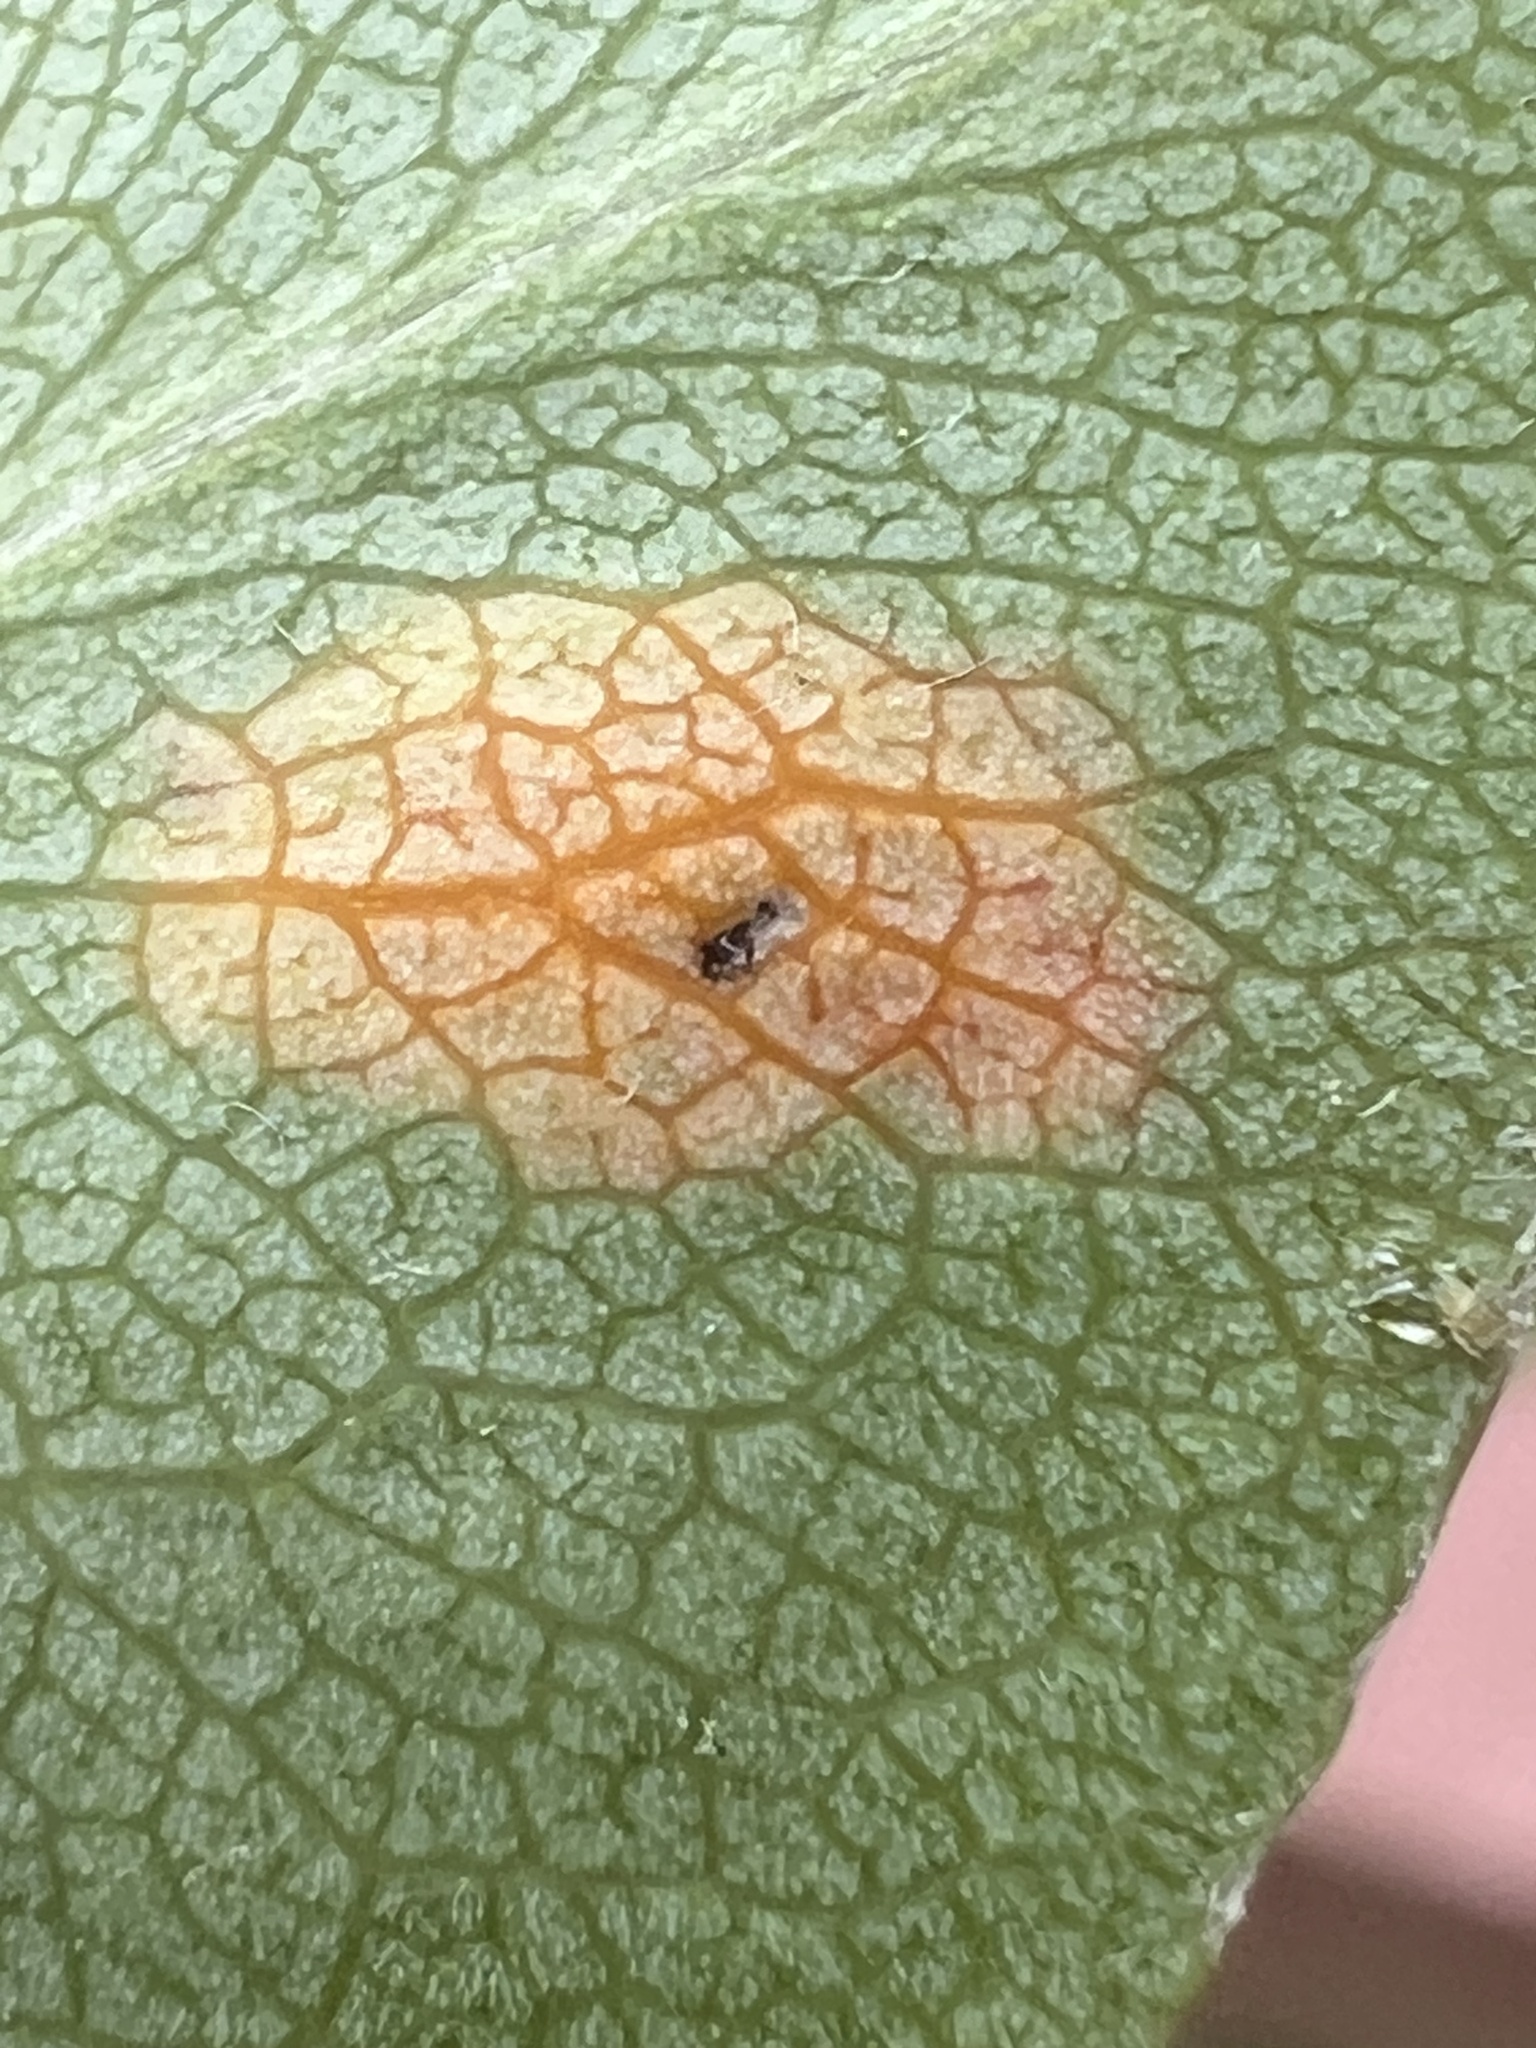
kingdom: Fungi
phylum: Basidiomycota
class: Pucciniomycetes
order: Pucciniales
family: Gymnosporangiaceae
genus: Gymnosporangium
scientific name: Gymnosporangium sabinae
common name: Pear trellis rust fungus
